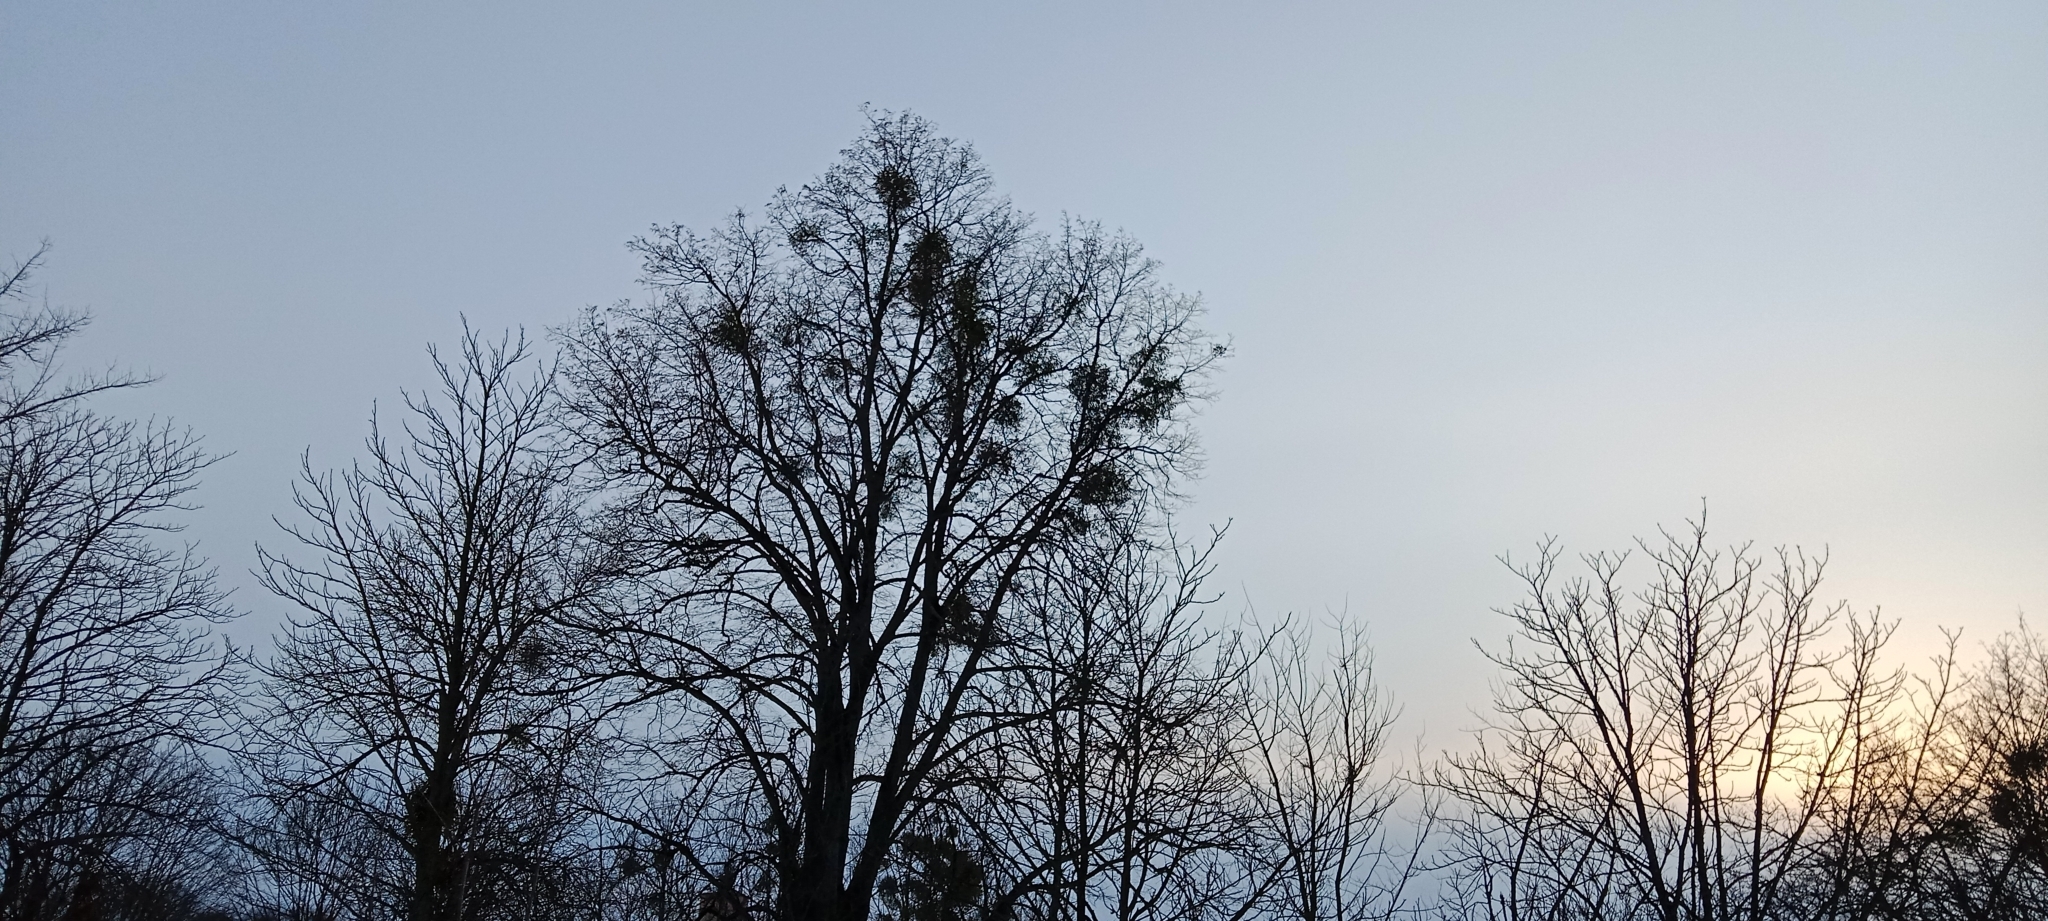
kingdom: Plantae
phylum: Tracheophyta
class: Magnoliopsida
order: Santalales
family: Viscaceae
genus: Viscum
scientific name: Viscum album
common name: Mistletoe
